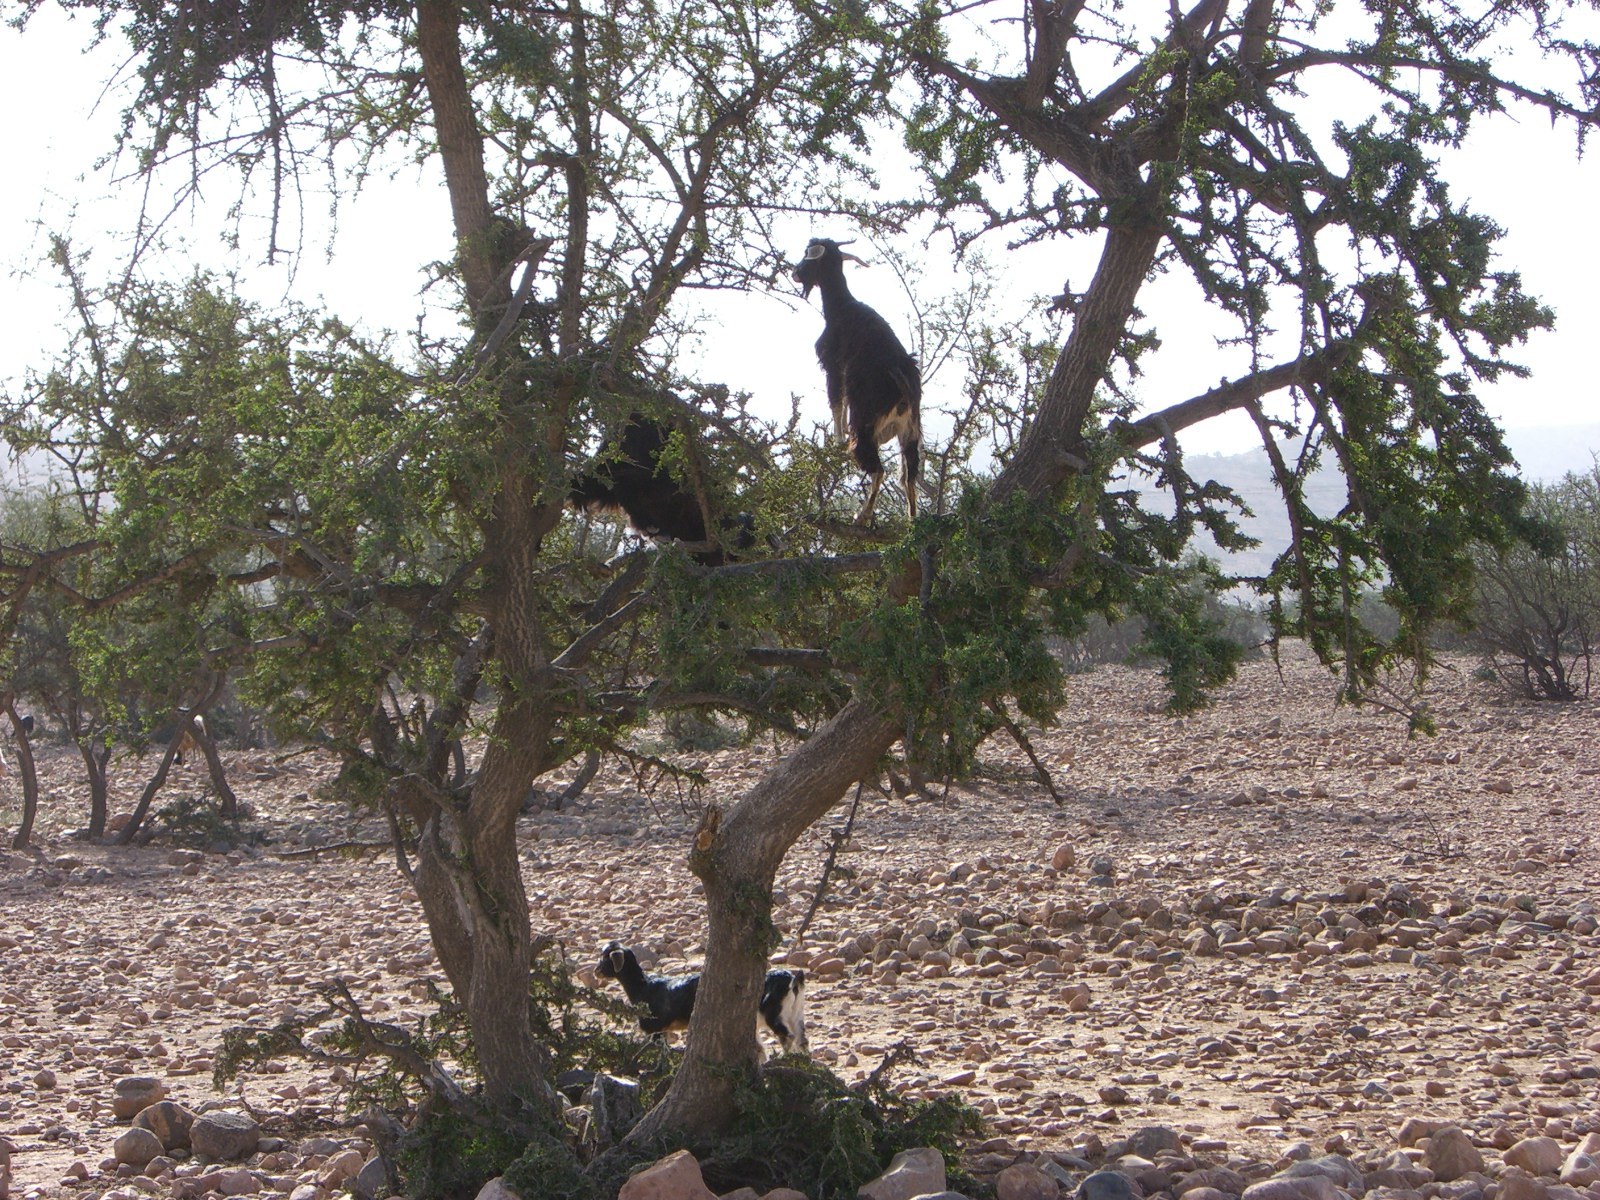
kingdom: Plantae
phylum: Tracheophyta
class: Magnoliopsida
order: Ericales
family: Sapotaceae
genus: Sideroxylon
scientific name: Sideroxylon spinosum
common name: Argan
